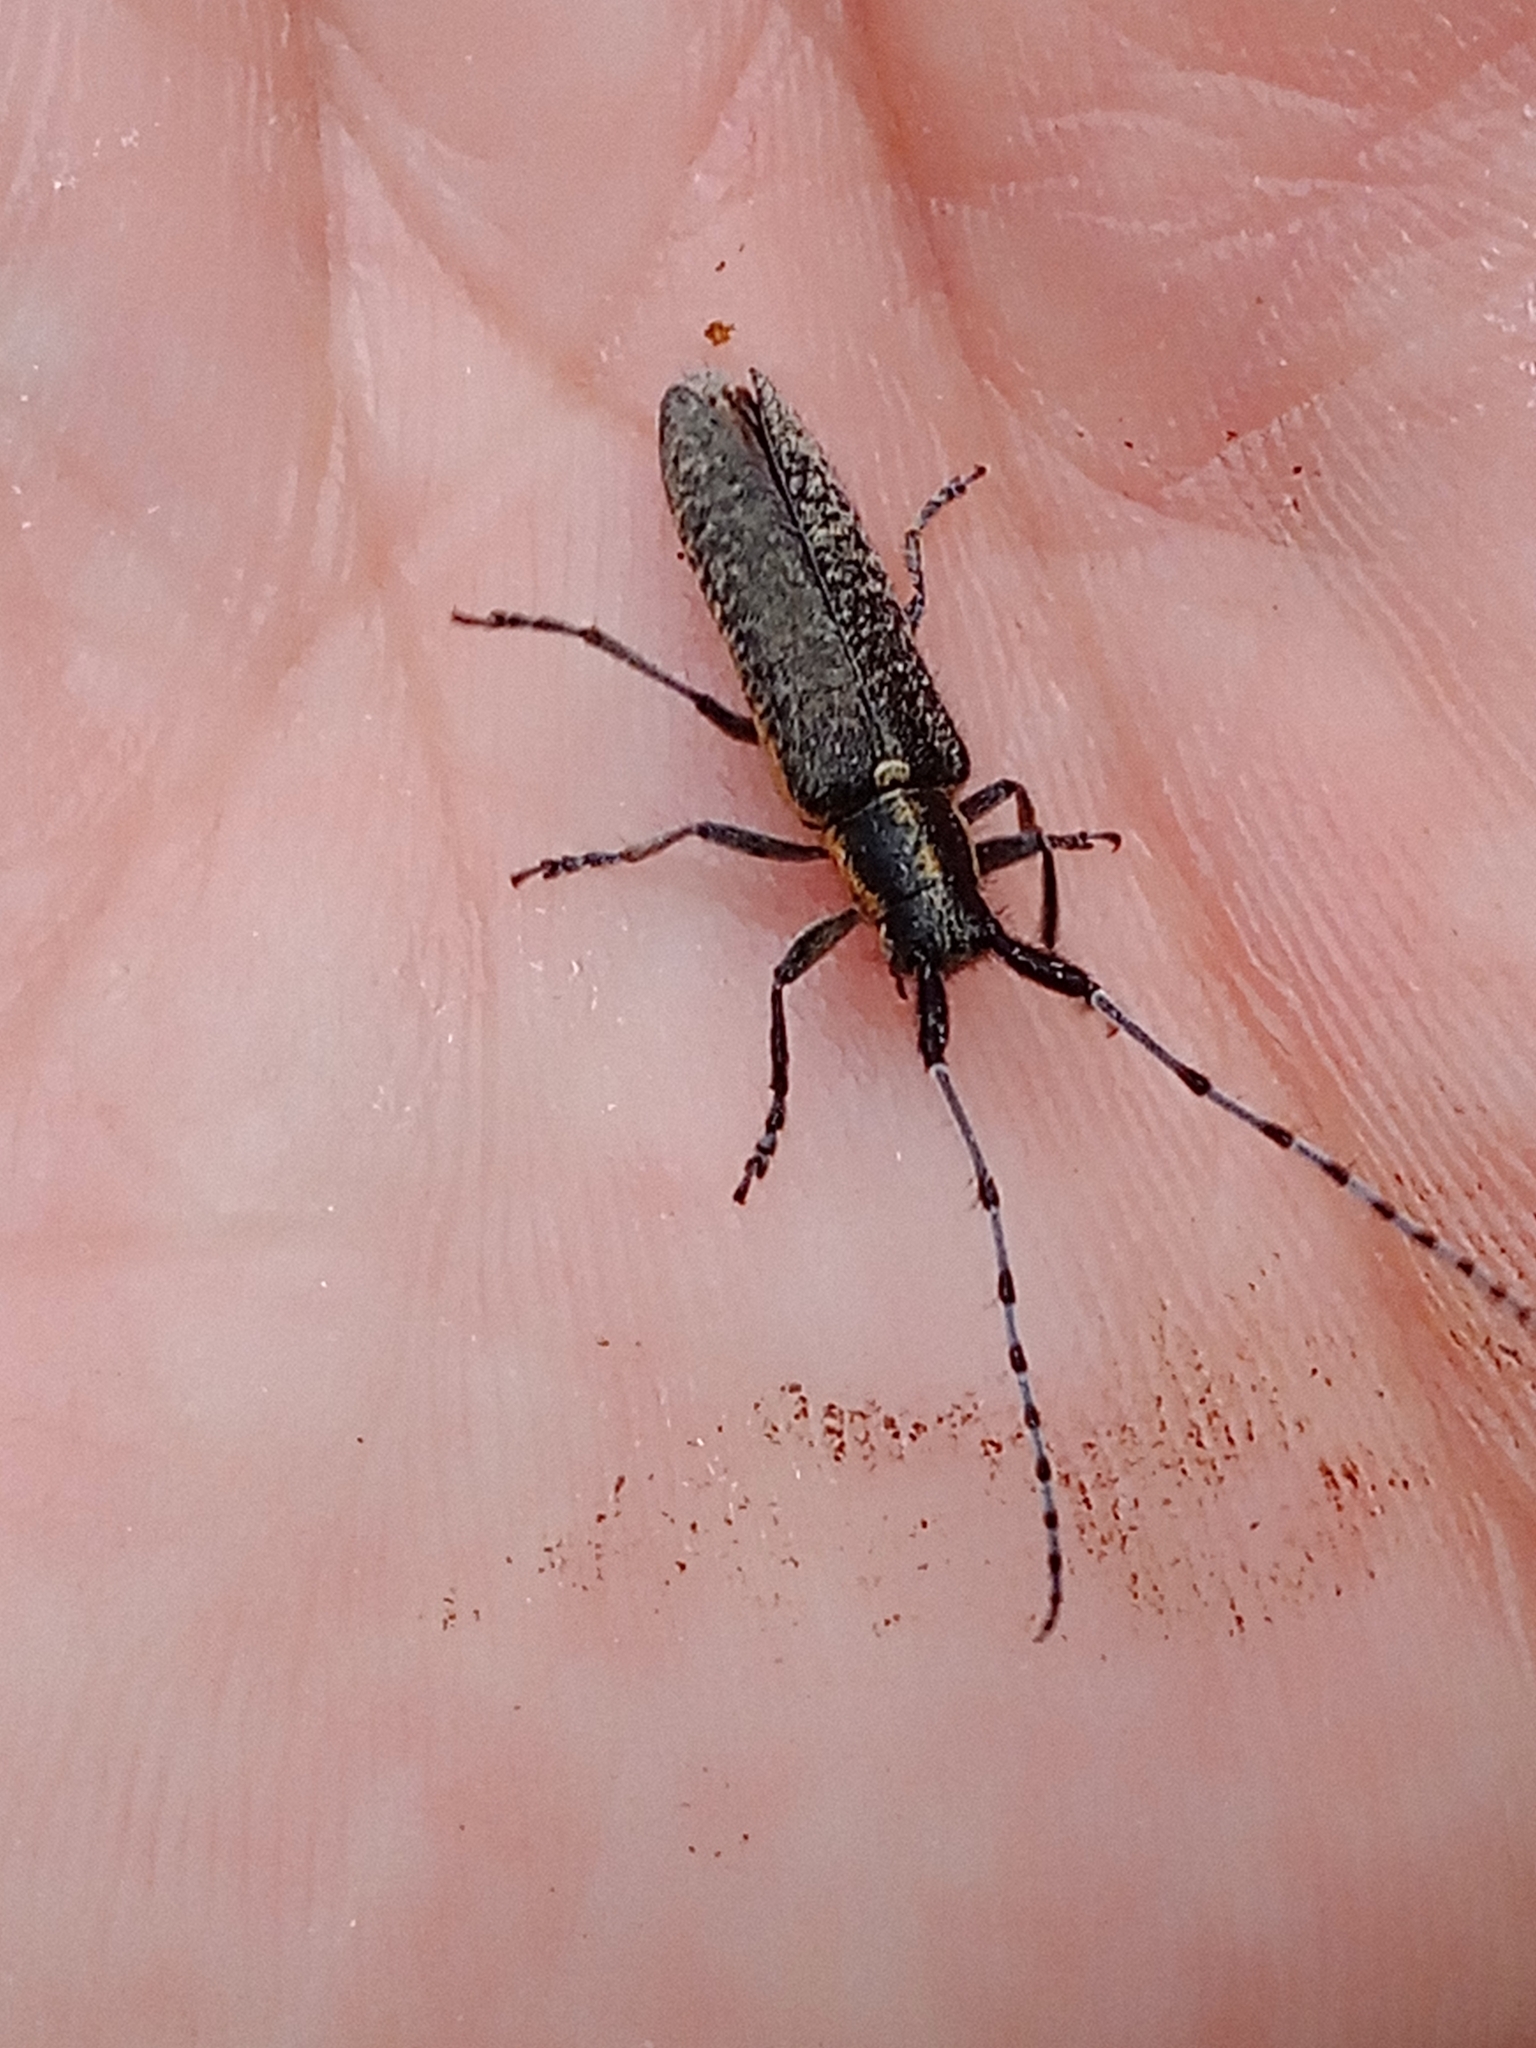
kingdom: Animalia
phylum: Arthropoda
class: Insecta
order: Coleoptera
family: Cerambycidae
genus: Agapanthia
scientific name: Agapanthia villosoviridescens
